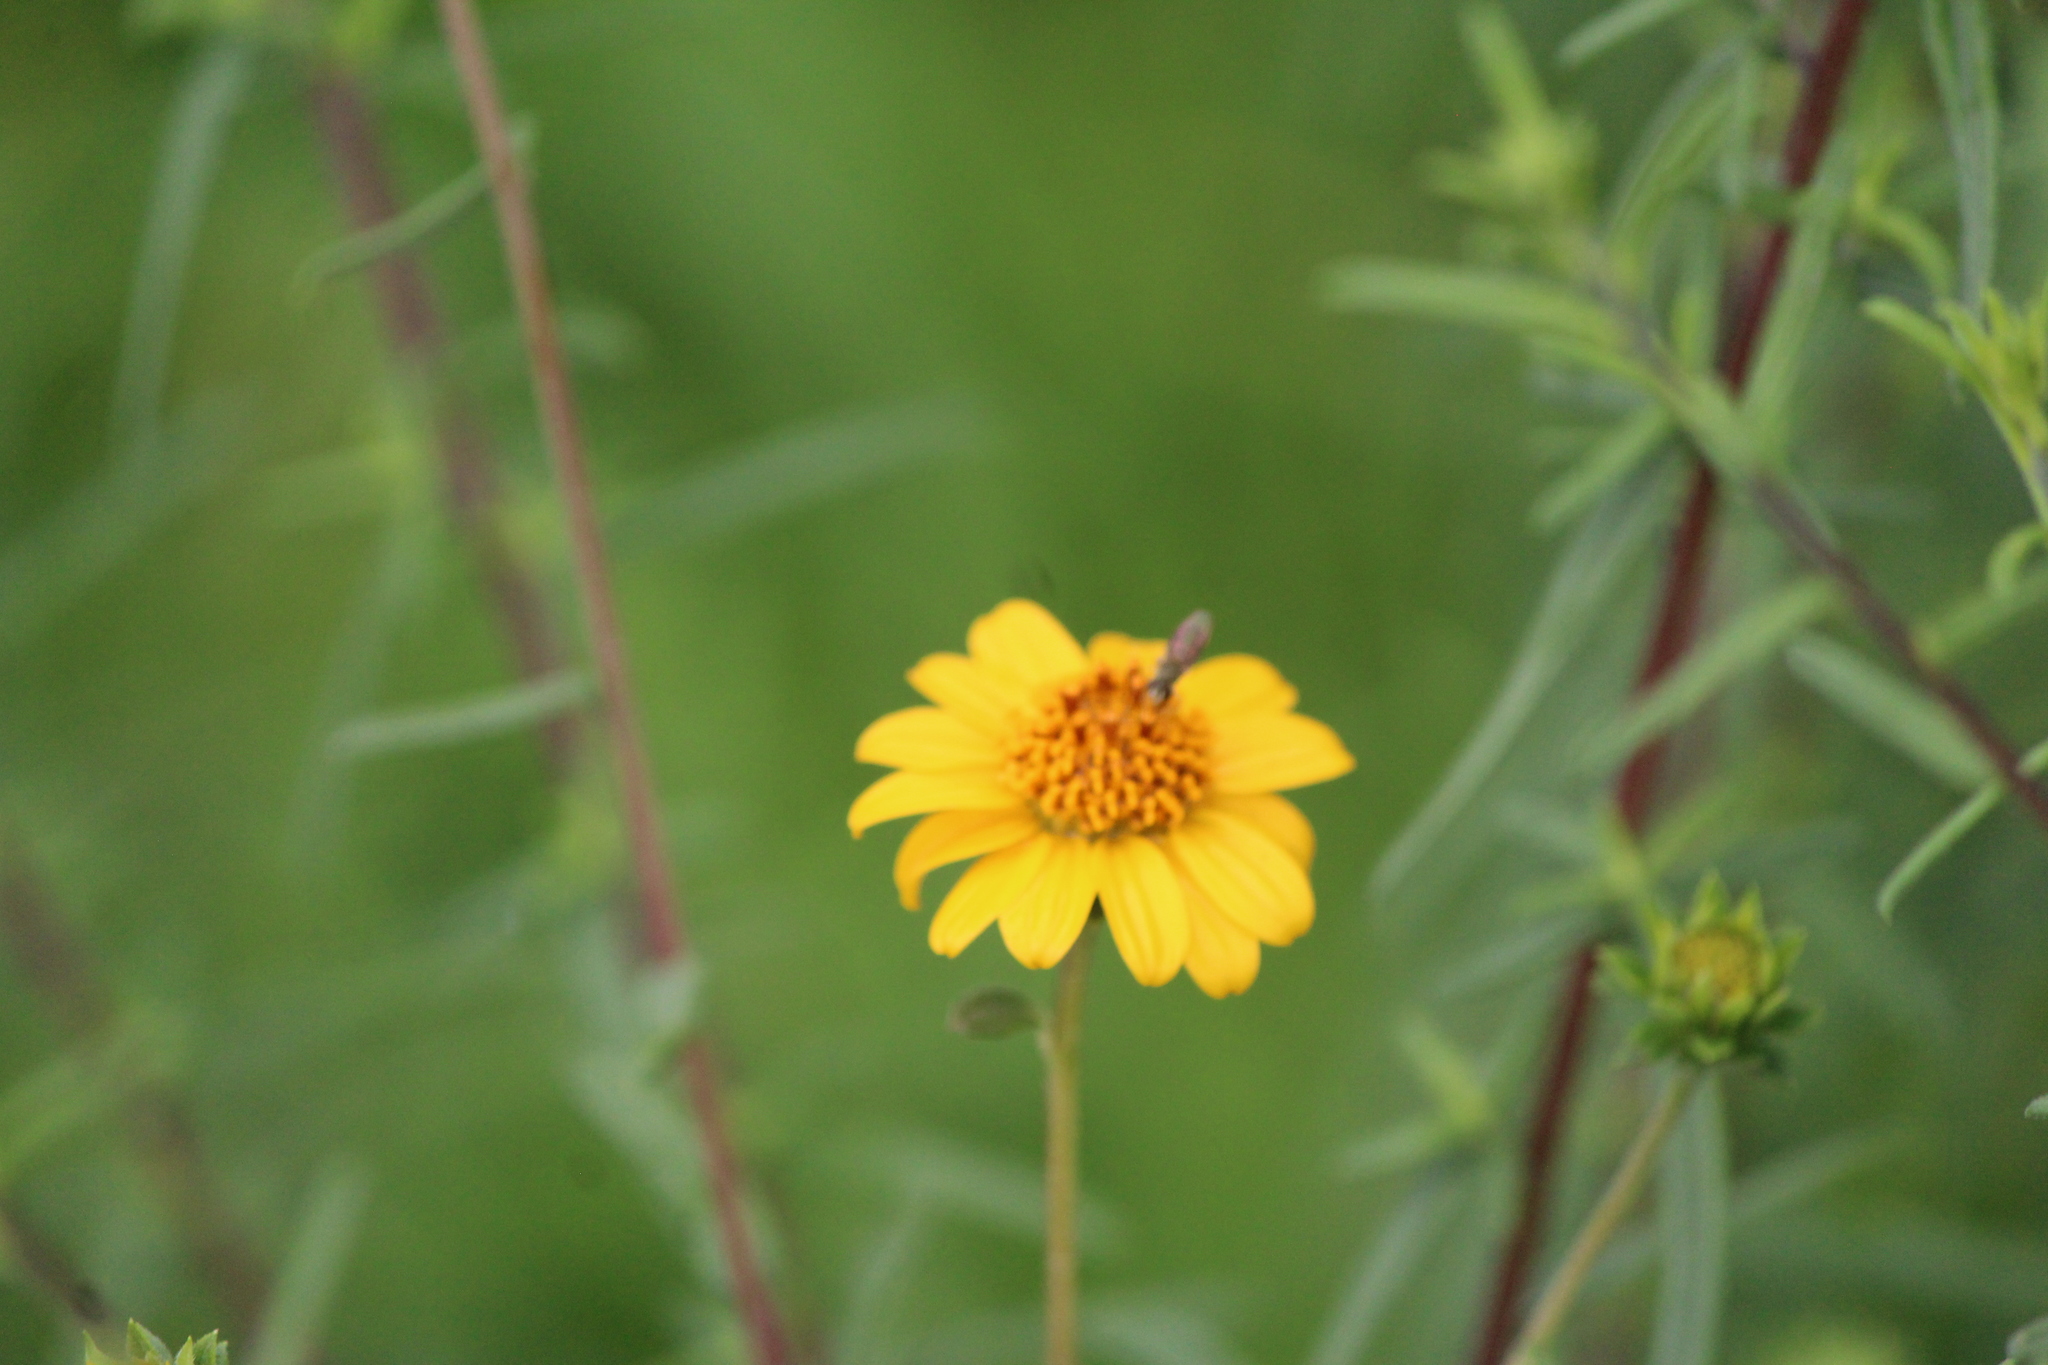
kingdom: Plantae
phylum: Tracheophyta
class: Magnoliopsida
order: Asterales
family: Asteraceae
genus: Aldama
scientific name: Aldama linearis
